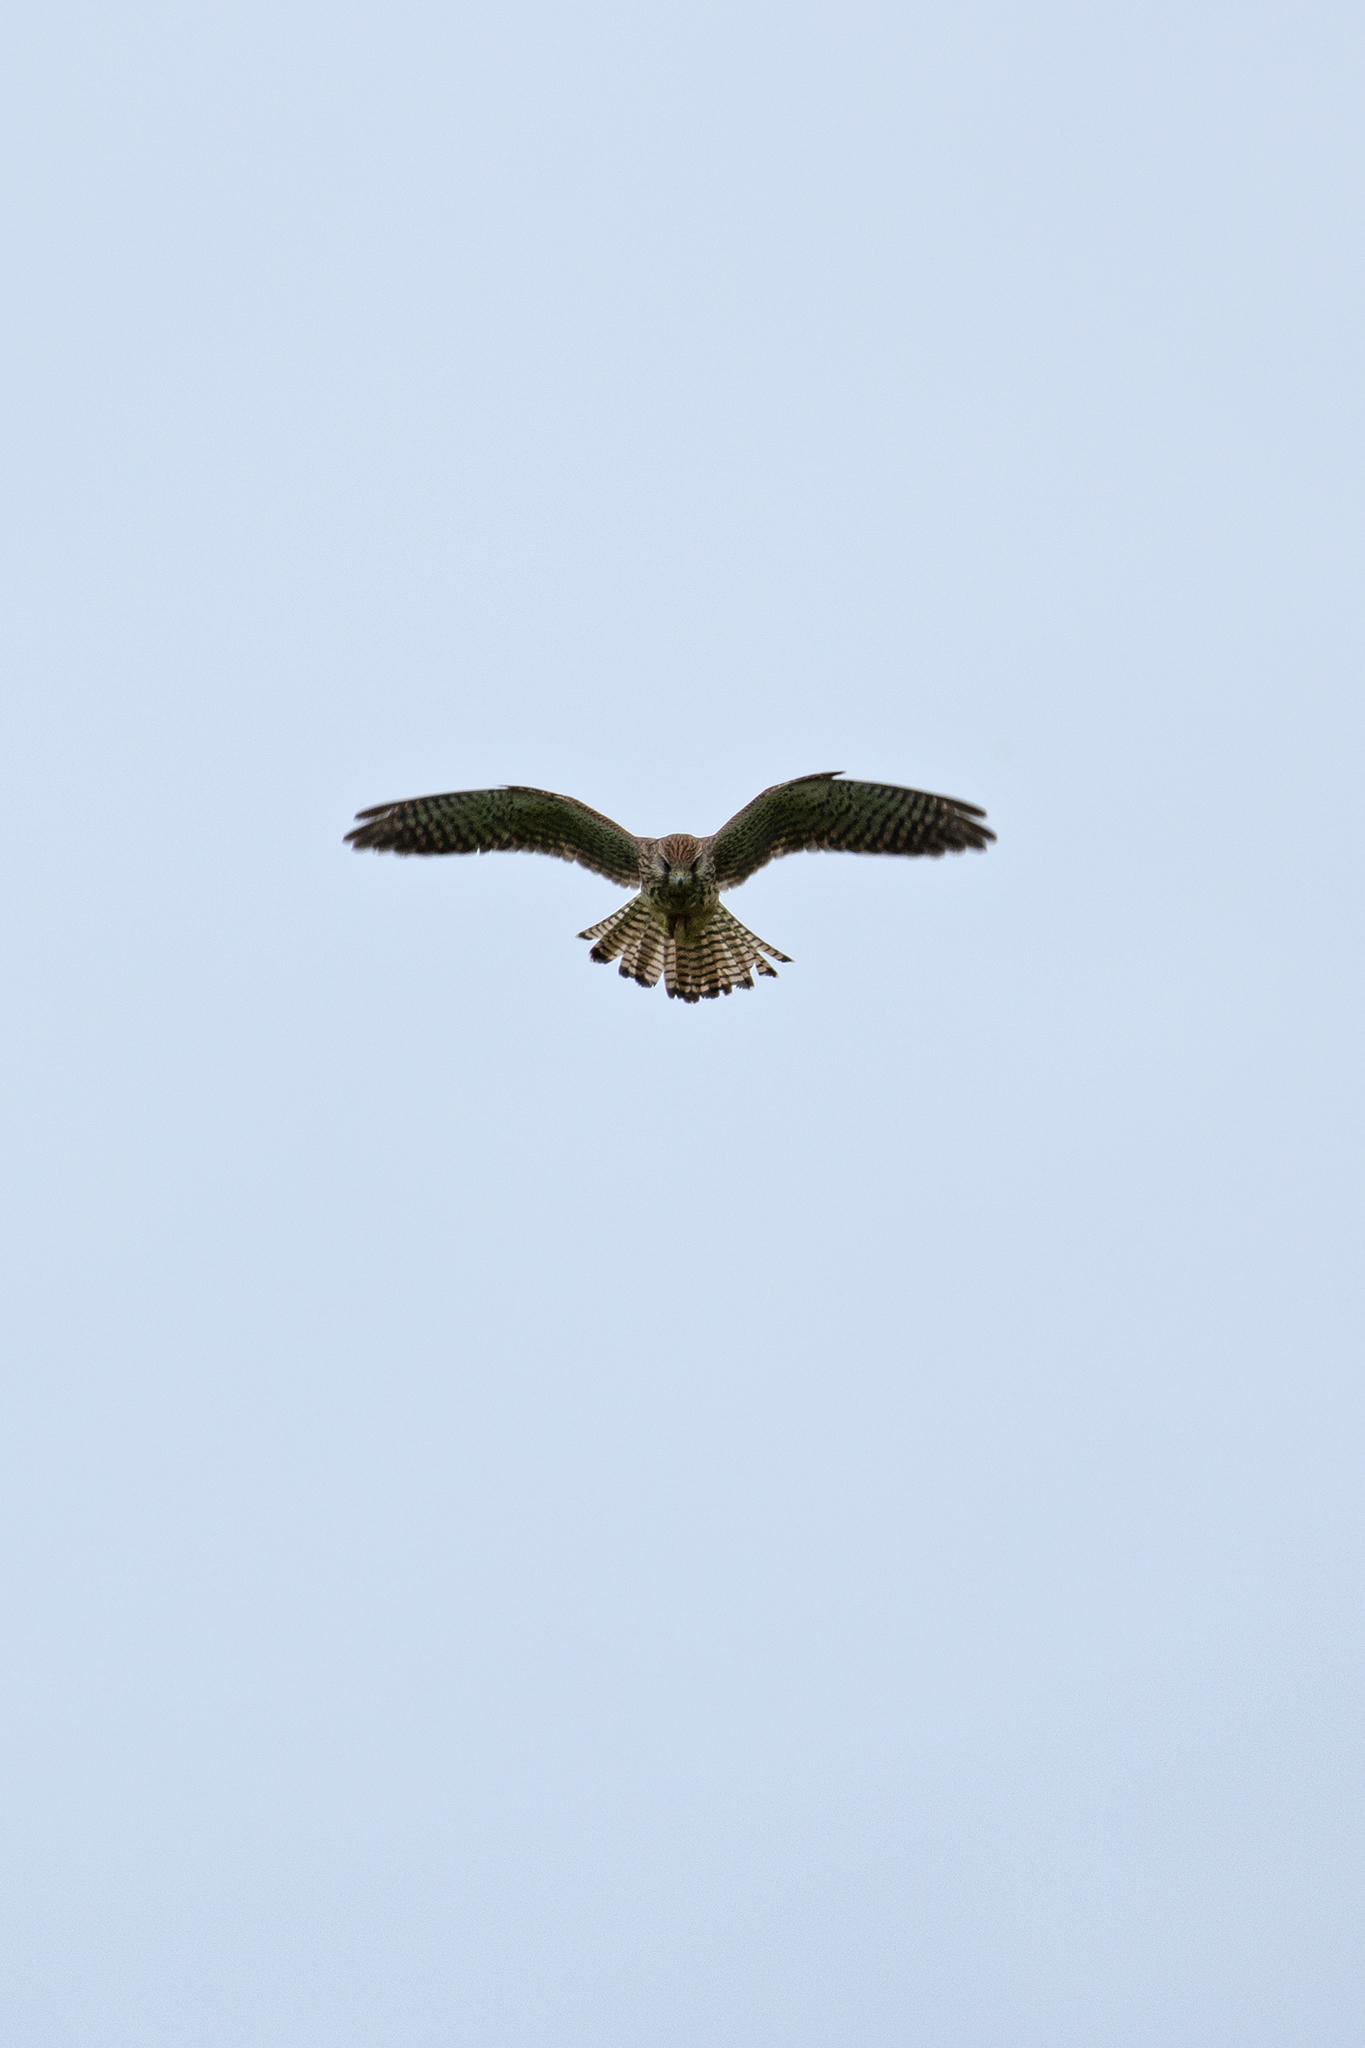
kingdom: Animalia
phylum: Chordata
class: Aves
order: Falconiformes
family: Falconidae
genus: Falco
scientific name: Falco tinnunculus
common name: Common kestrel
